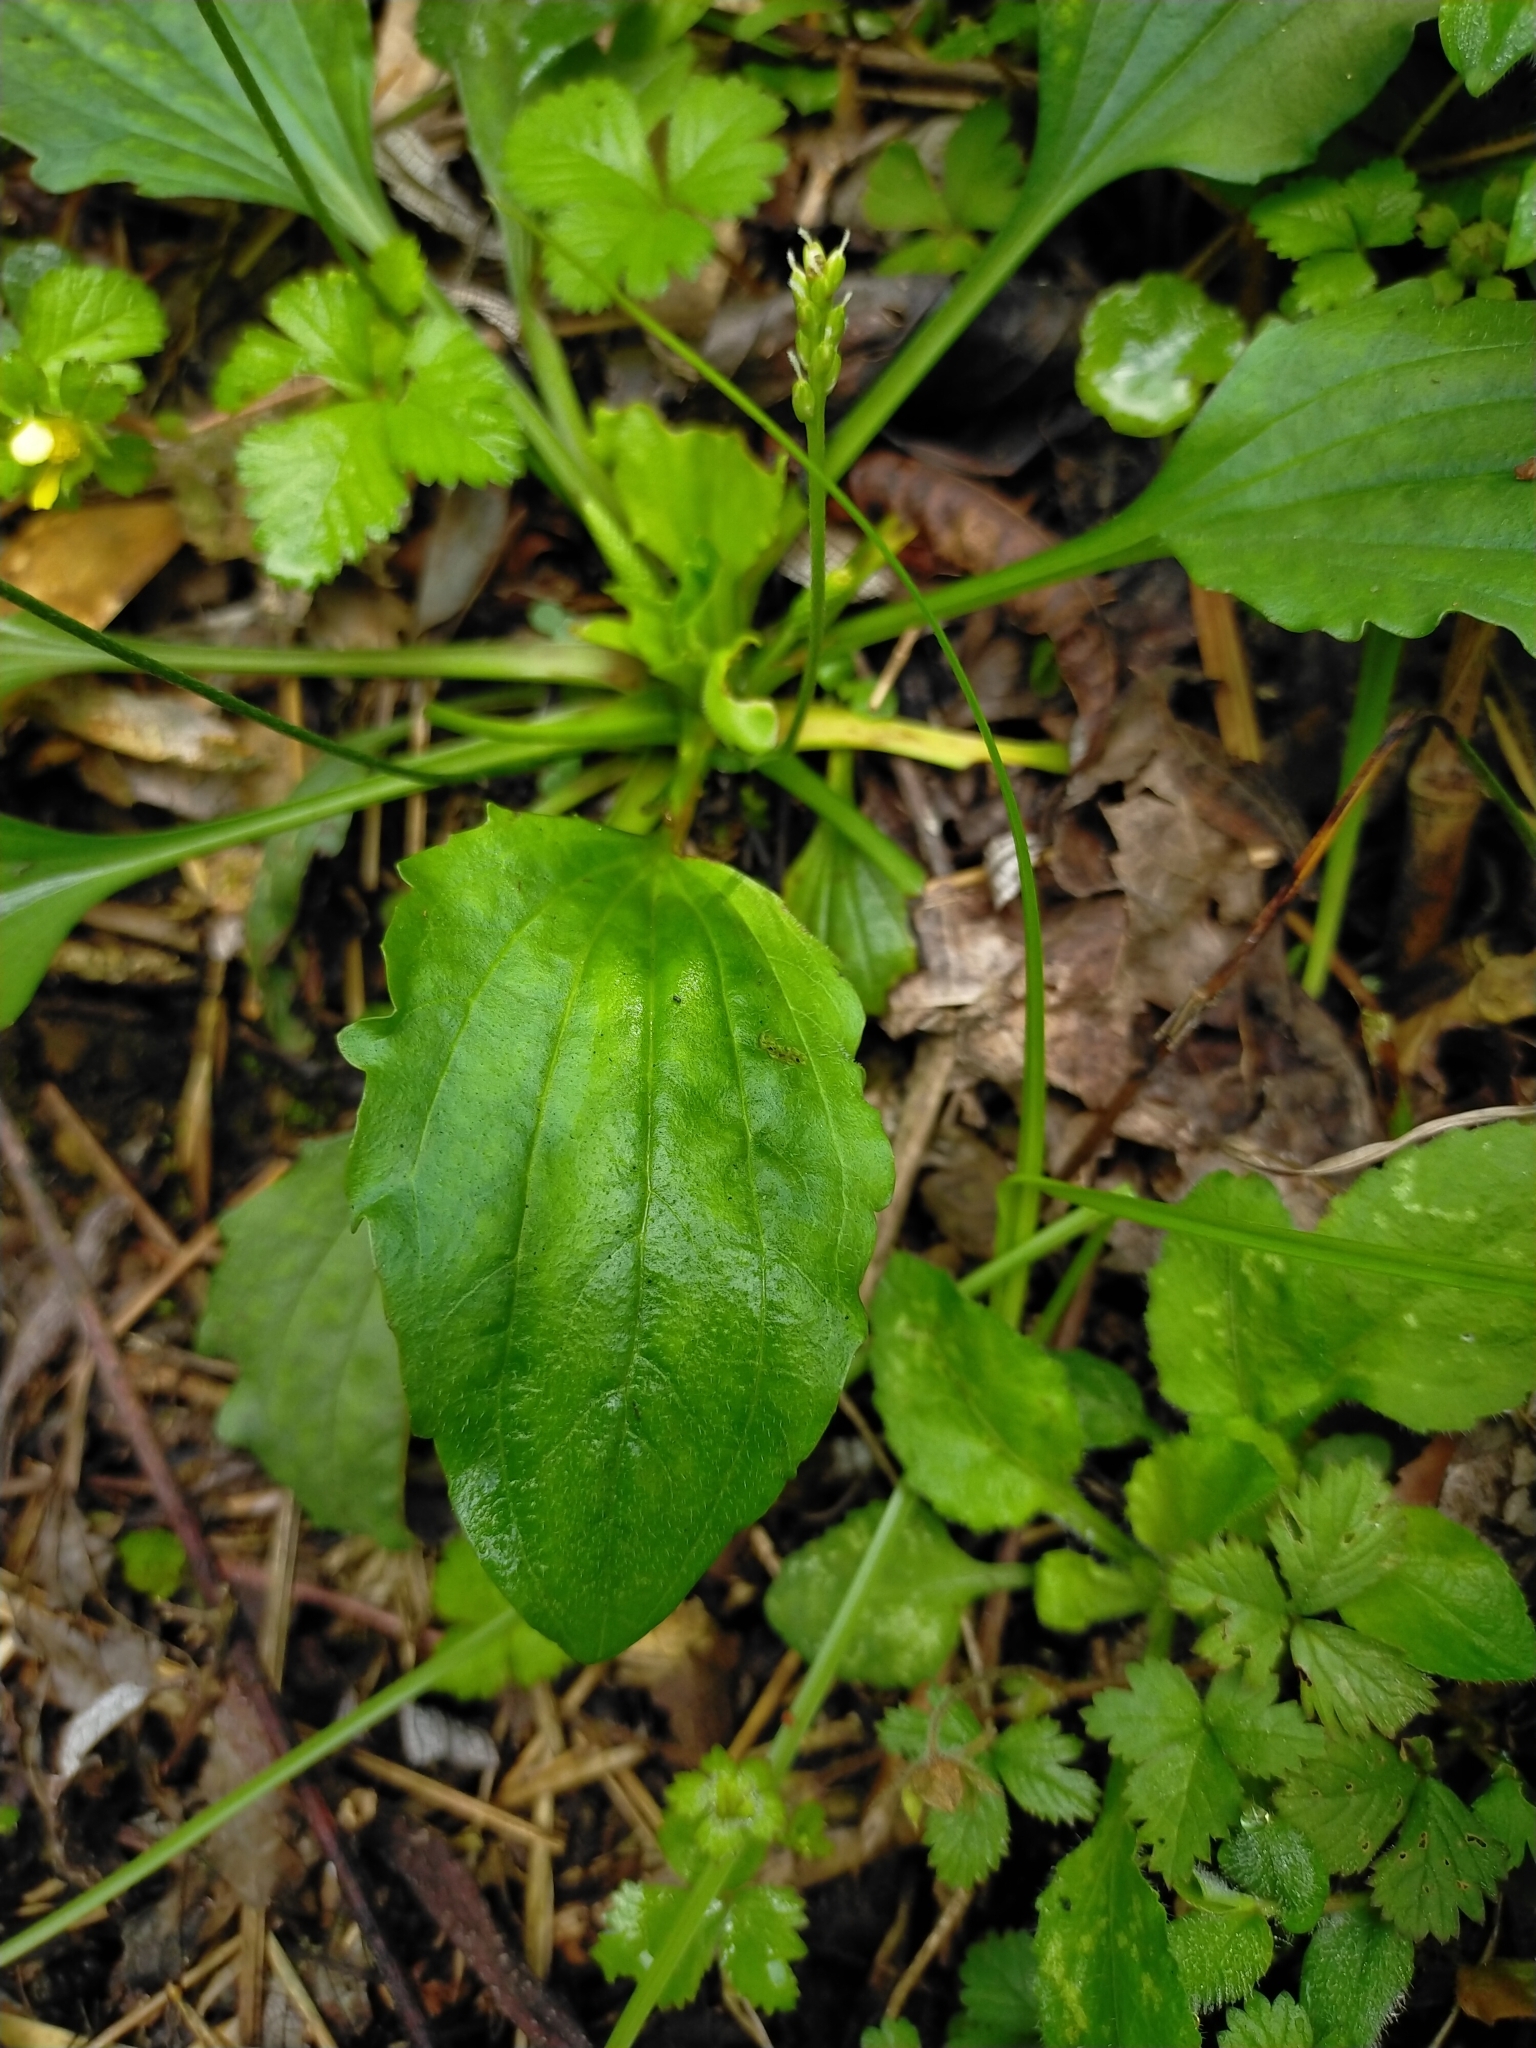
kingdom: Plantae
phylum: Tracheophyta
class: Magnoliopsida
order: Lamiales
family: Plantaginaceae
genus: Plantago
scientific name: Plantago asiatica
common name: Psyllium
